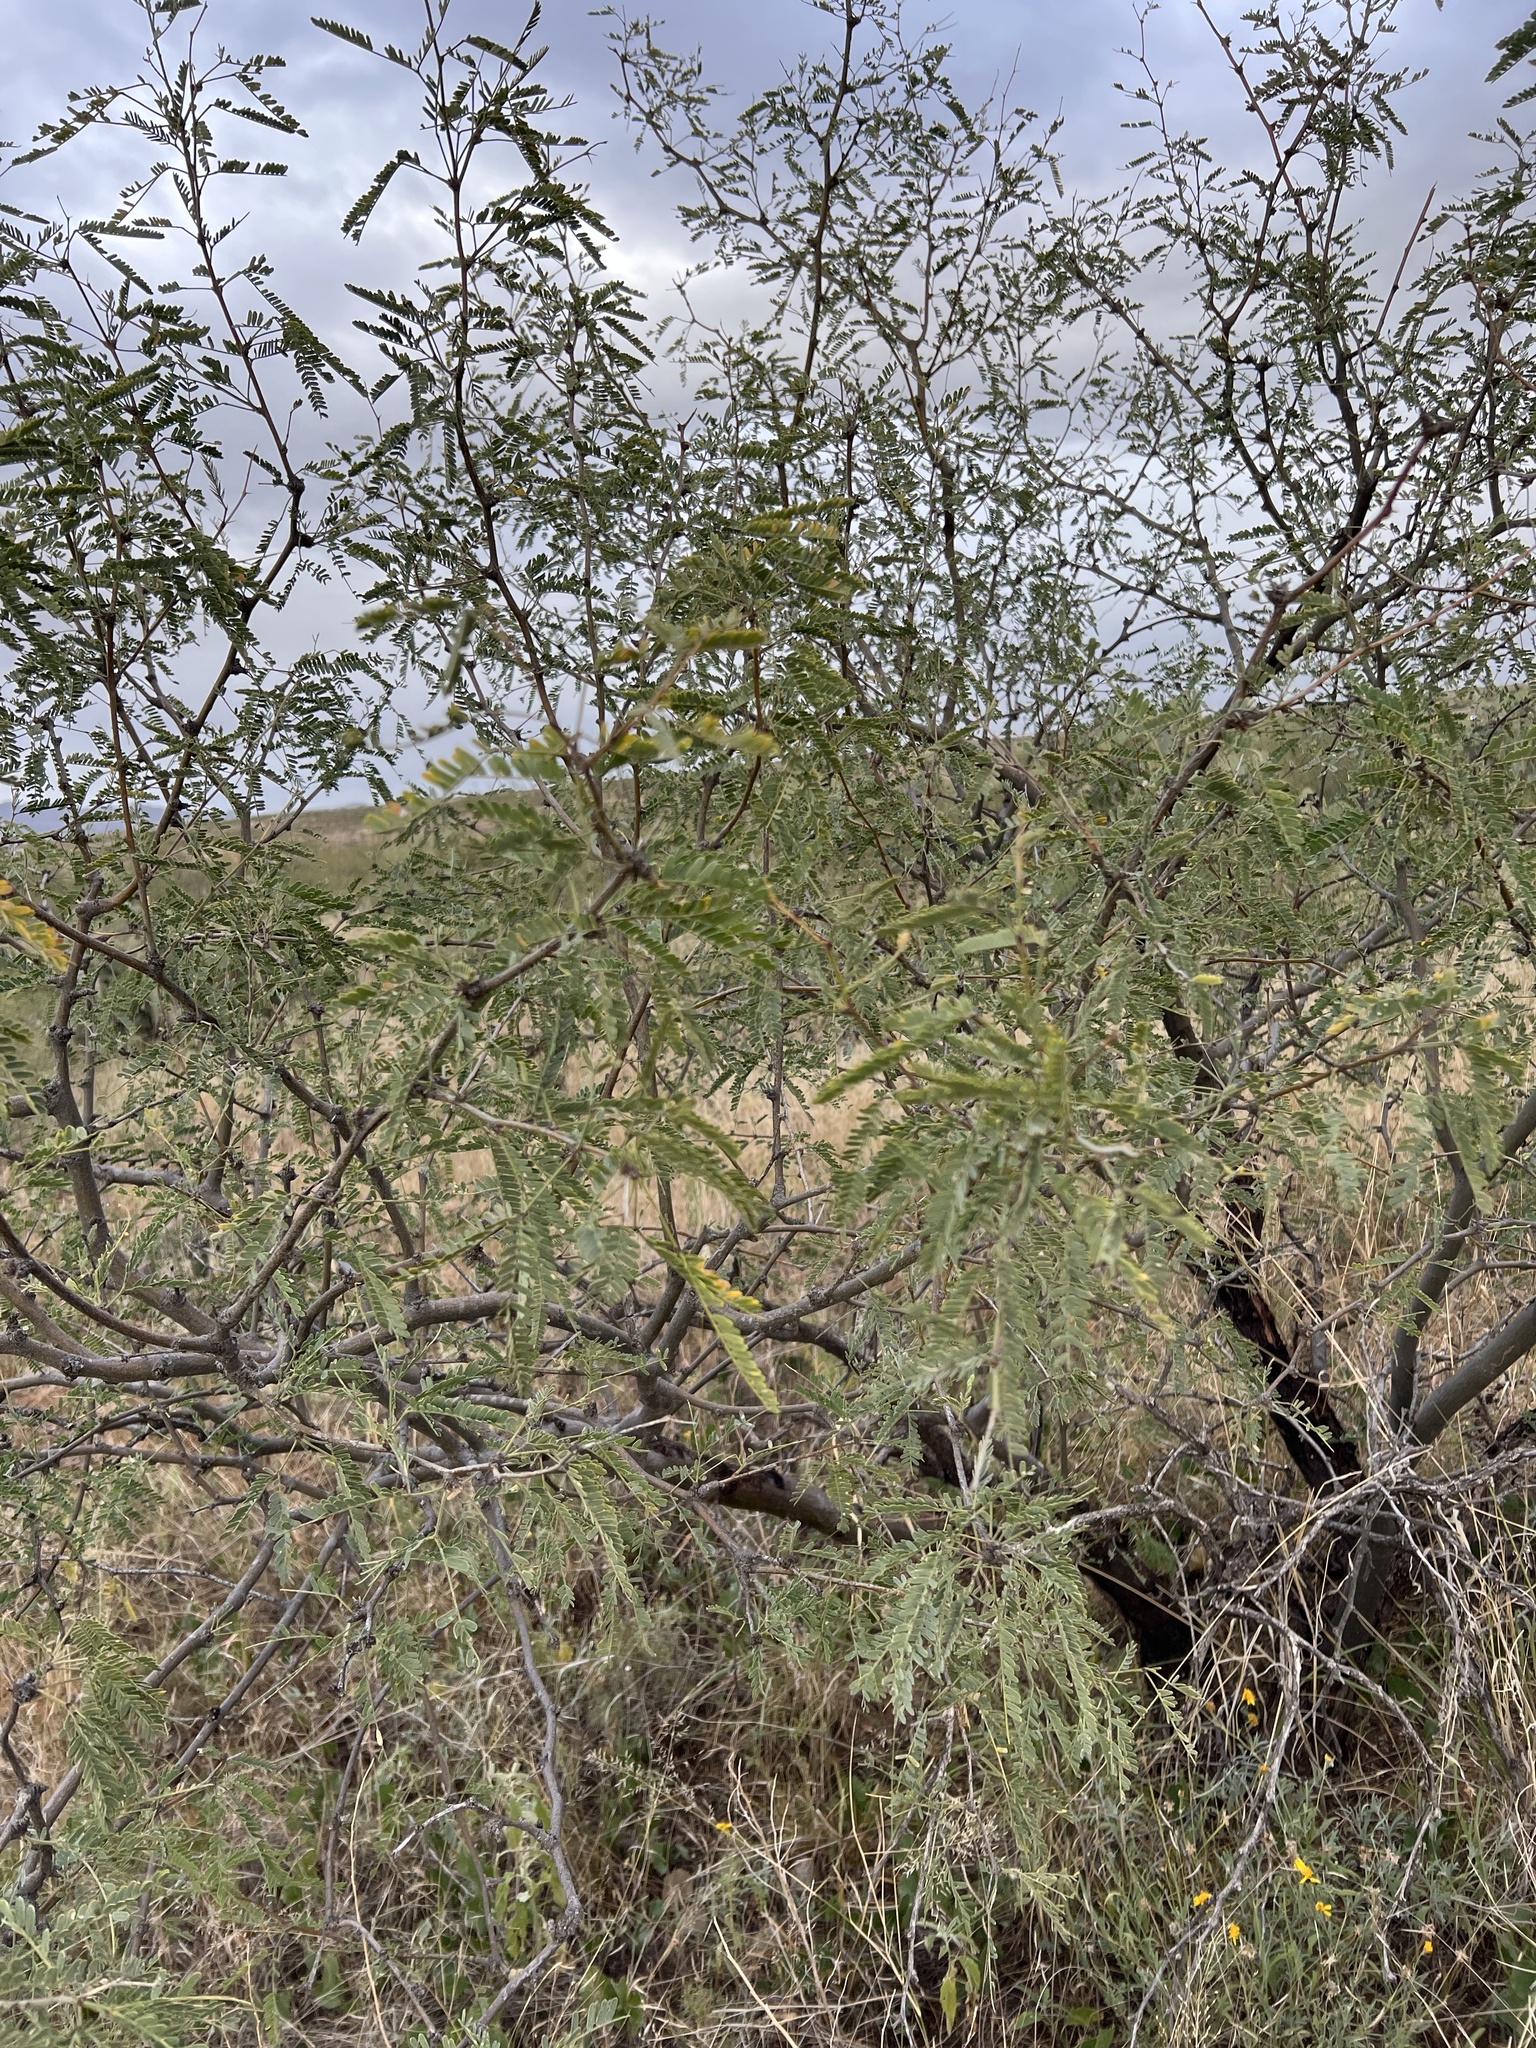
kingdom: Plantae
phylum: Tracheophyta
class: Magnoliopsida
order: Fabales
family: Fabaceae
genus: Prosopis
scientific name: Prosopis velutina
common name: Velvet mesquite
